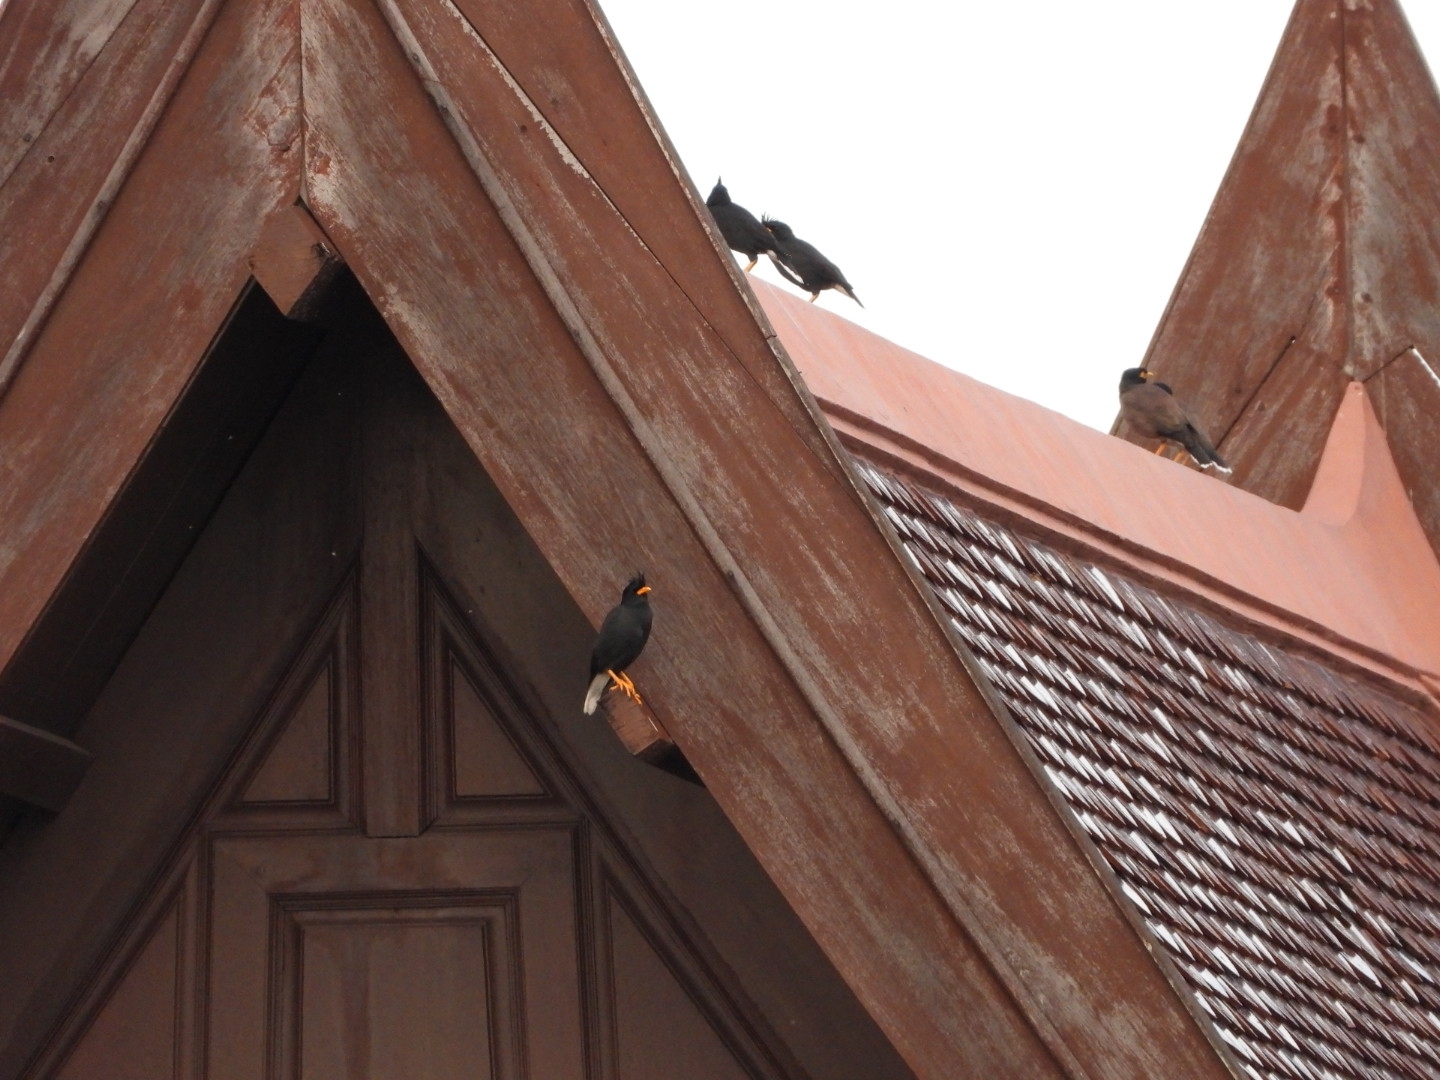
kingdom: Animalia
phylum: Chordata
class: Aves
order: Passeriformes
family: Sturnidae
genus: Acridotheres
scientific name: Acridotheres grandis
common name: Great myna
